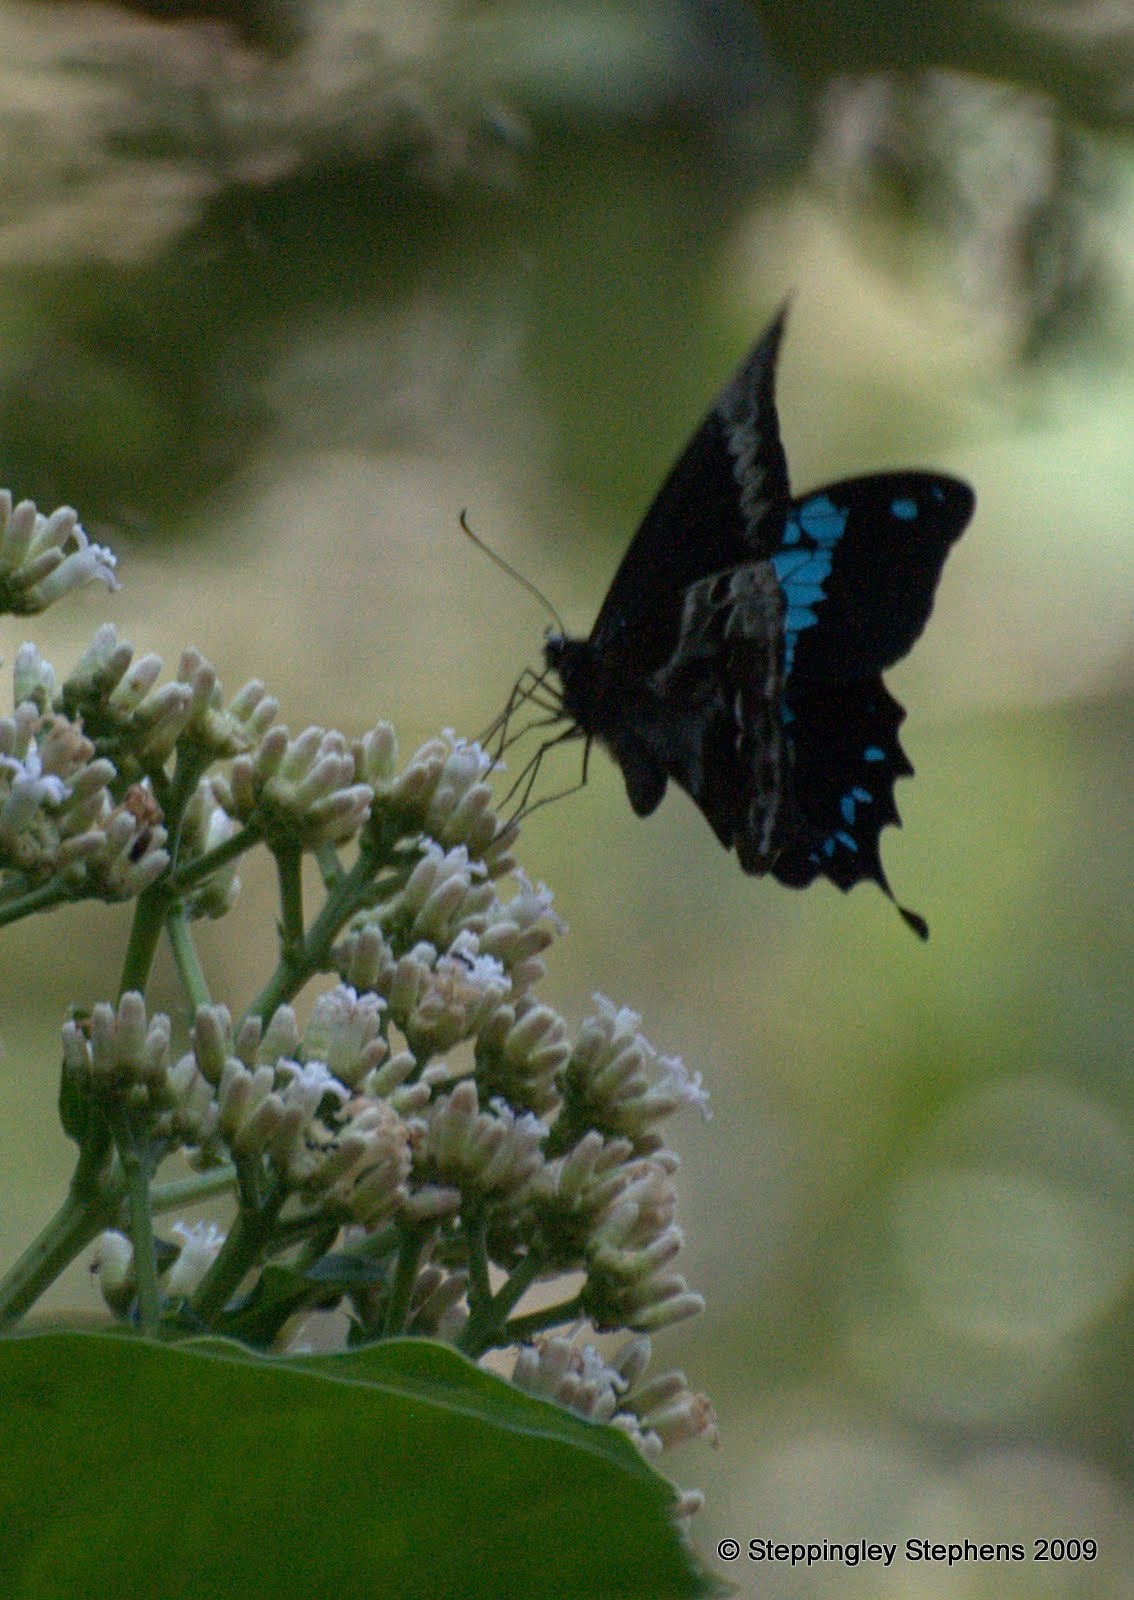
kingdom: Animalia
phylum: Arthropoda
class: Insecta
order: Lepidoptera
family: Papilionidae
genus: Papilio
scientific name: Papilio oribazus
